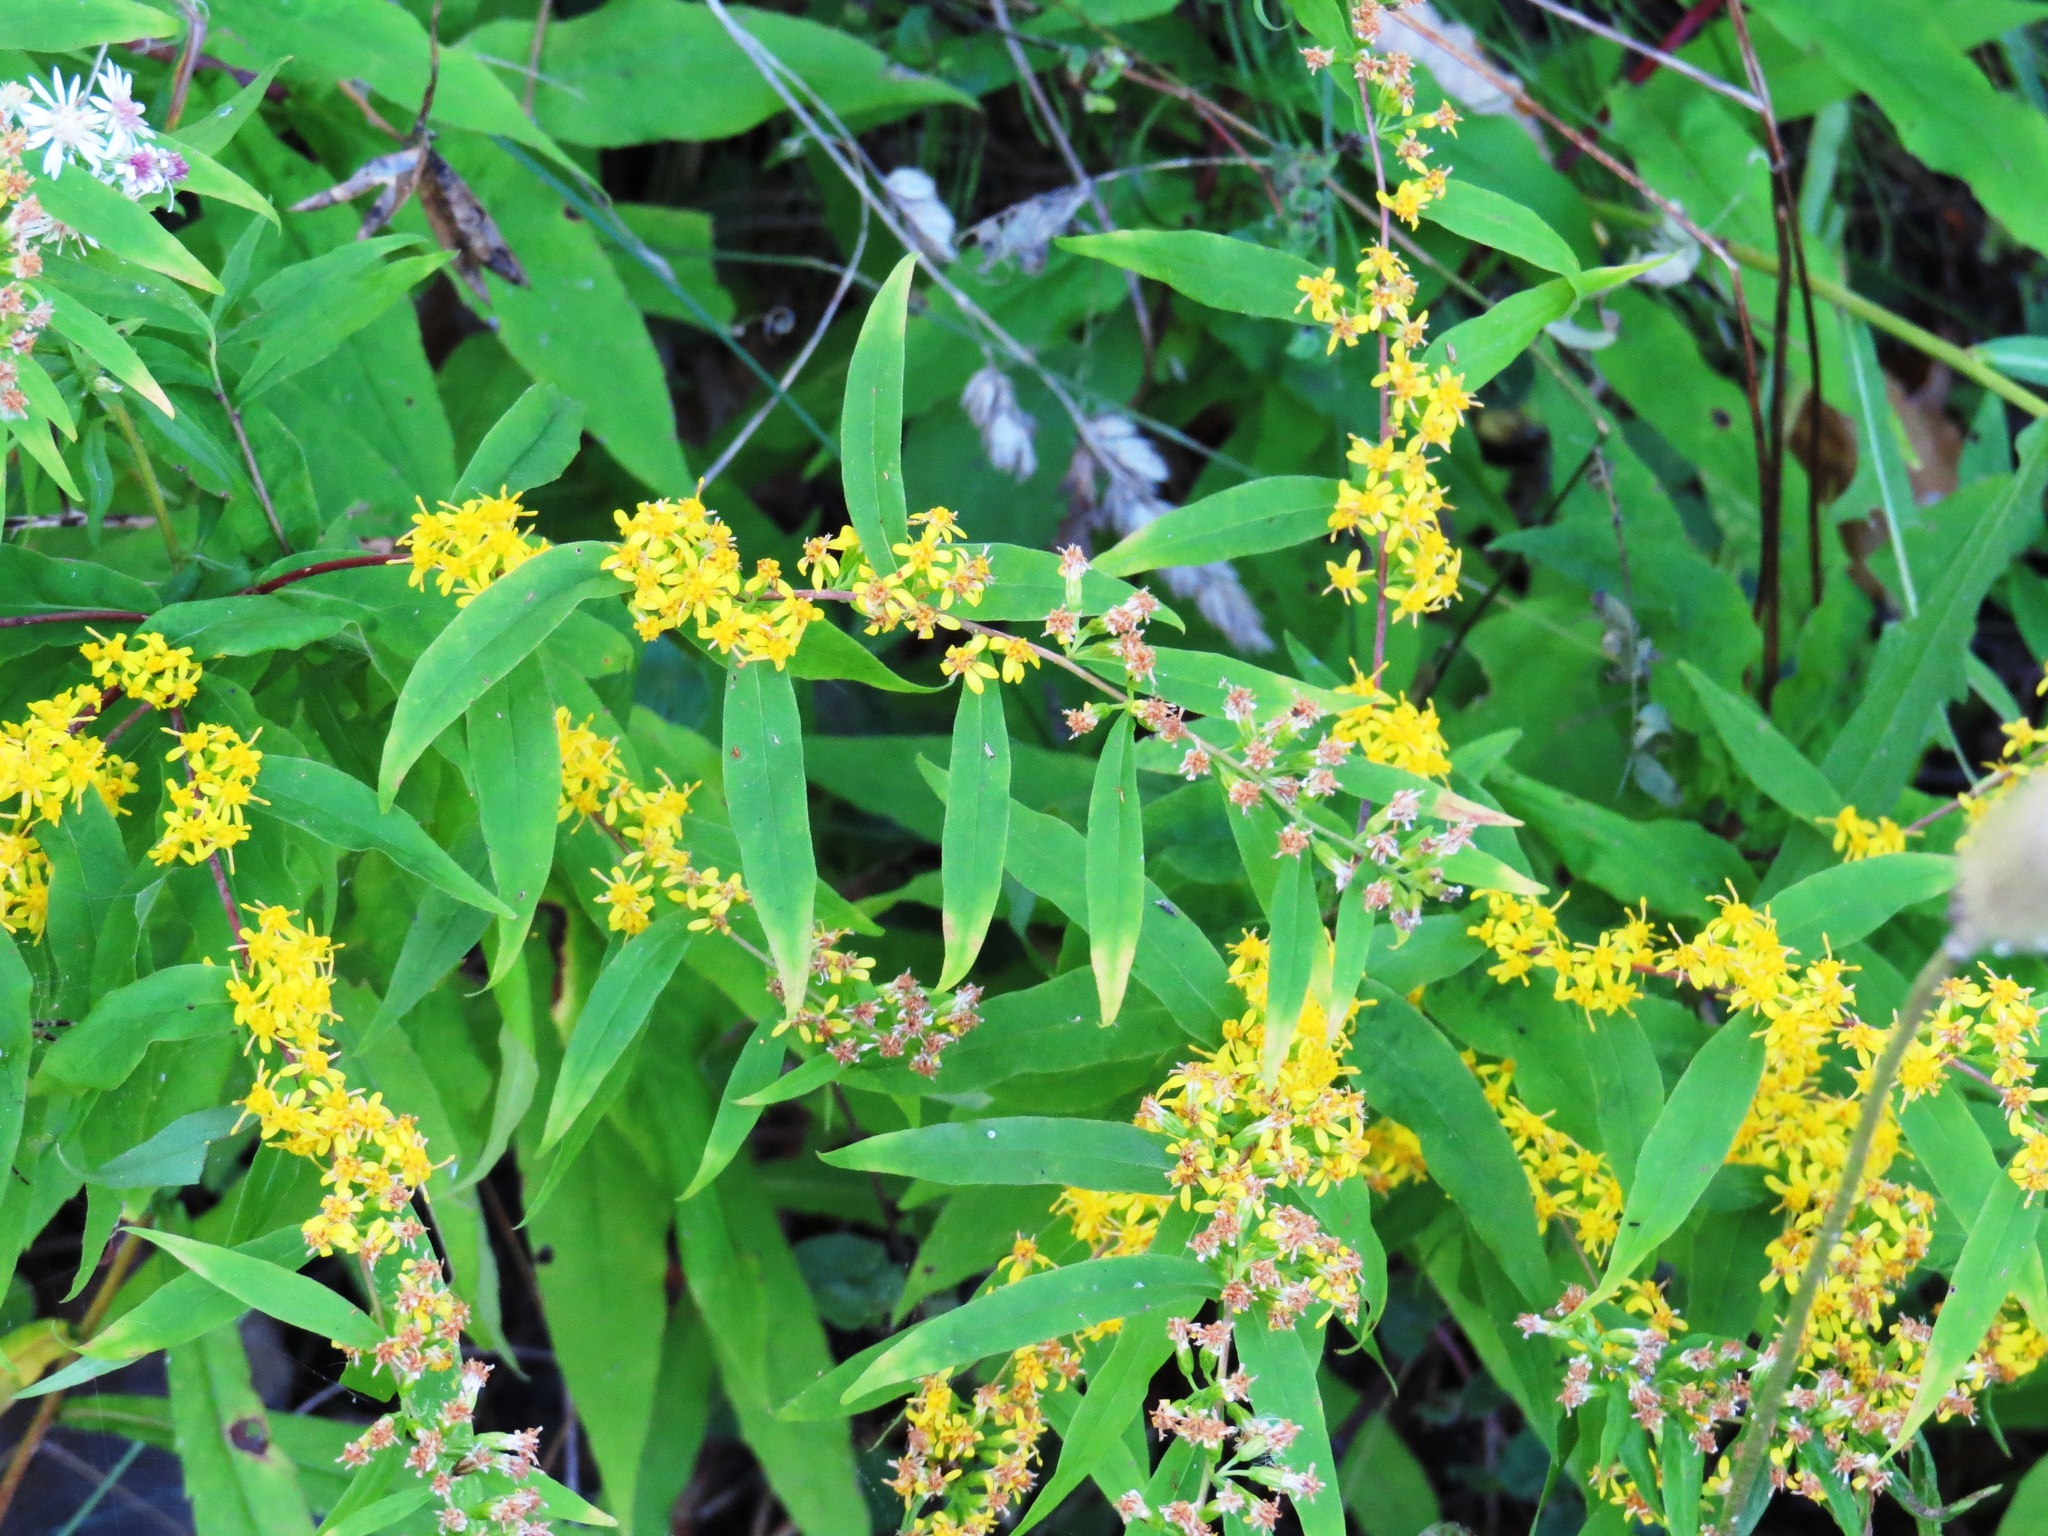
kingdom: Plantae
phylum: Tracheophyta
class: Magnoliopsida
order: Asterales
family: Asteraceae
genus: Solidago
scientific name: Solidago caesia
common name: Woodland goldenrod
